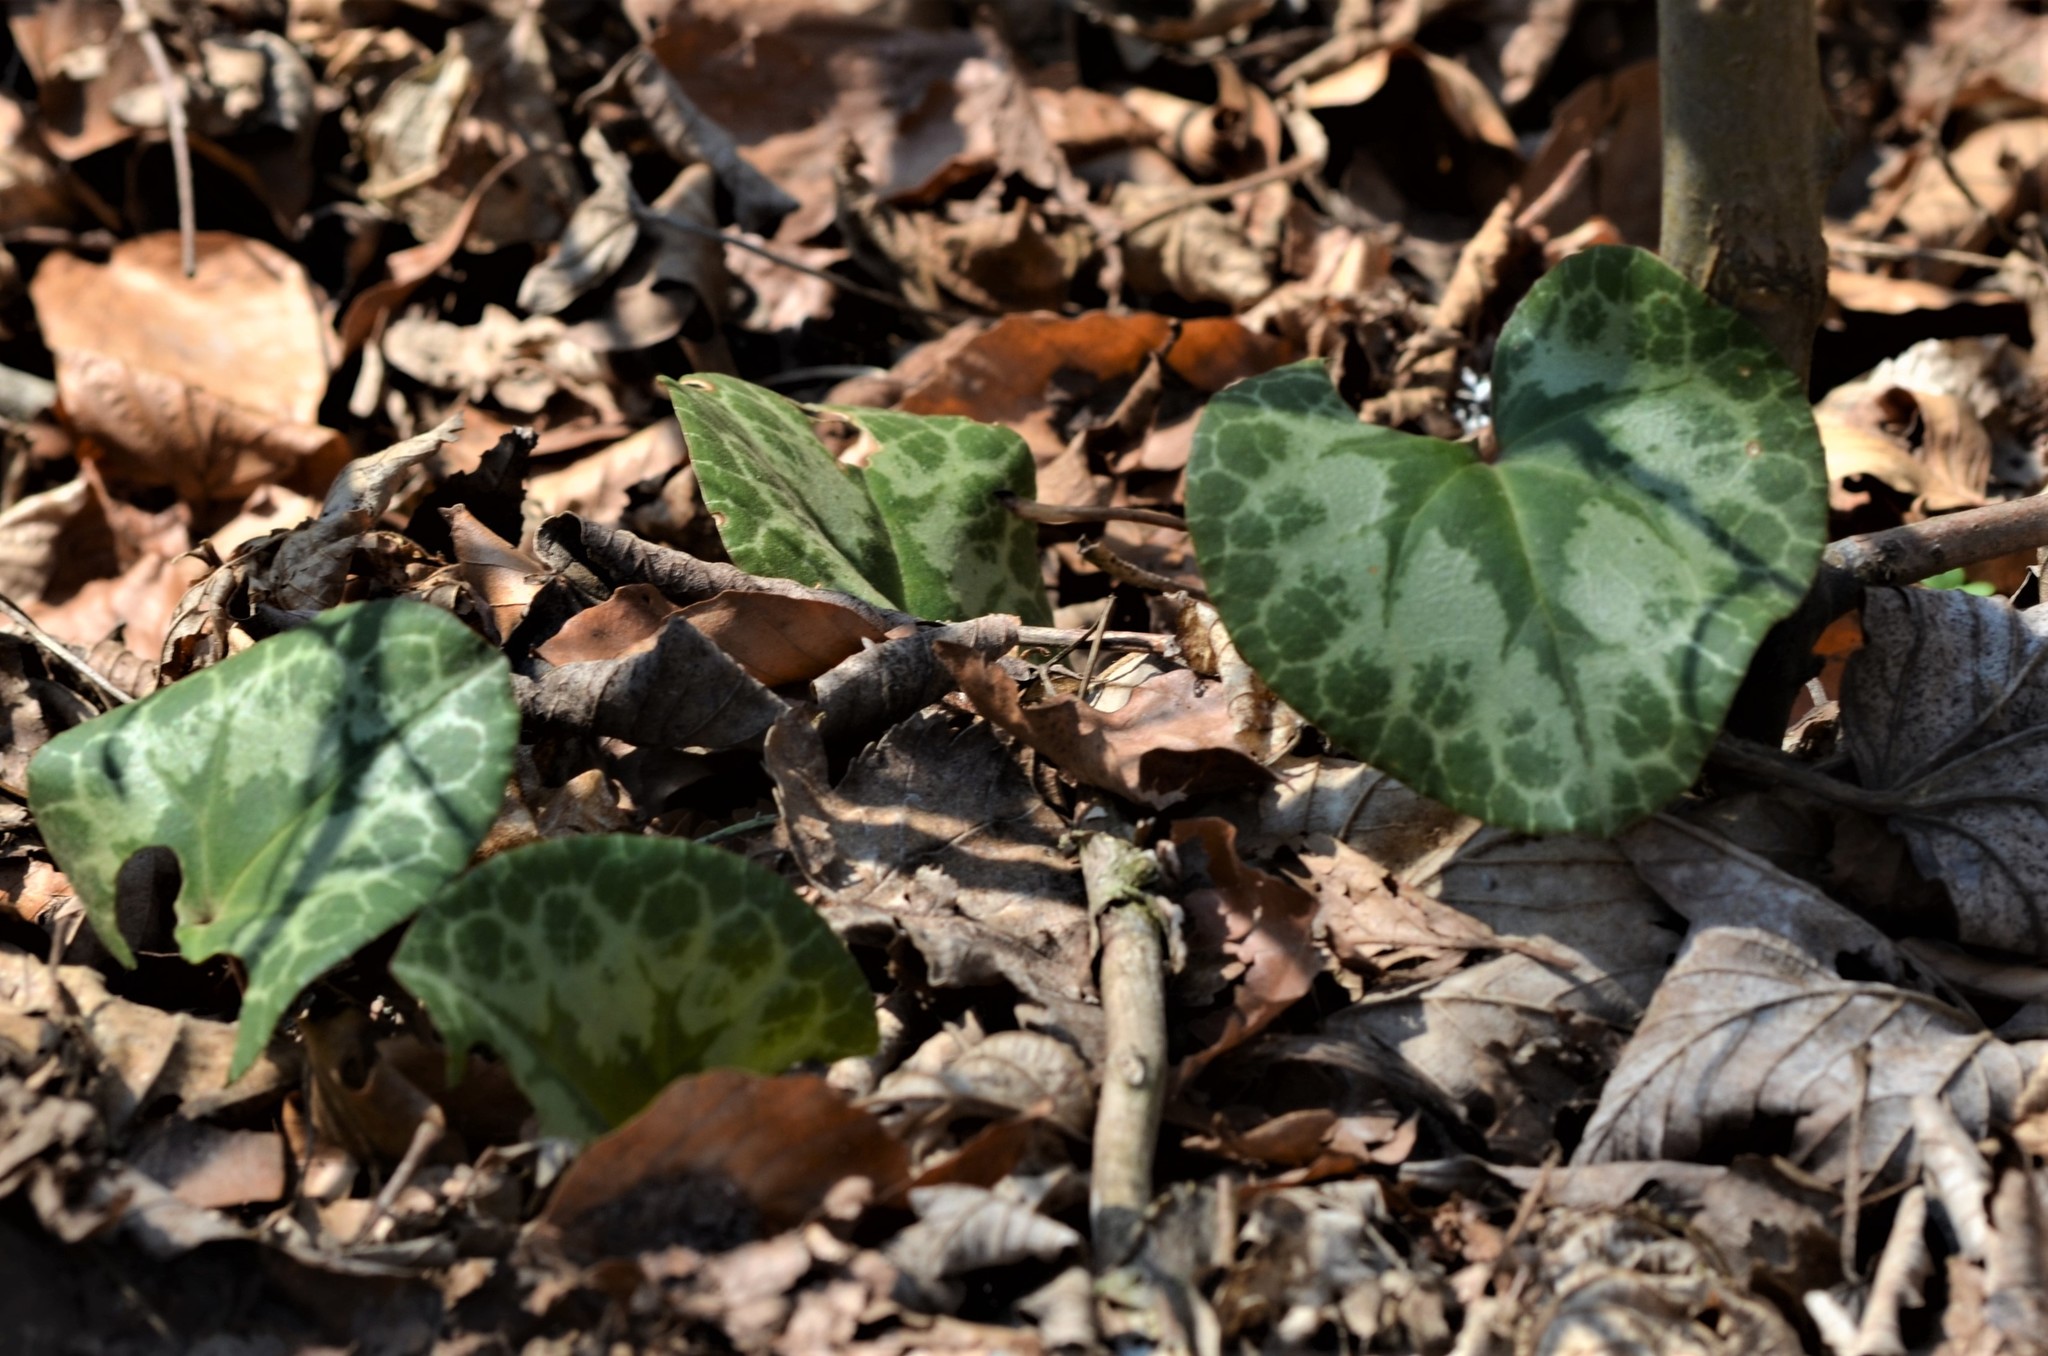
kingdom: Plantae
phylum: Tracheophyta
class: Magnoliopsida
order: Ericales
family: Primulaceae
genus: Cyclamen
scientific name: Cyclamen purpurascens
